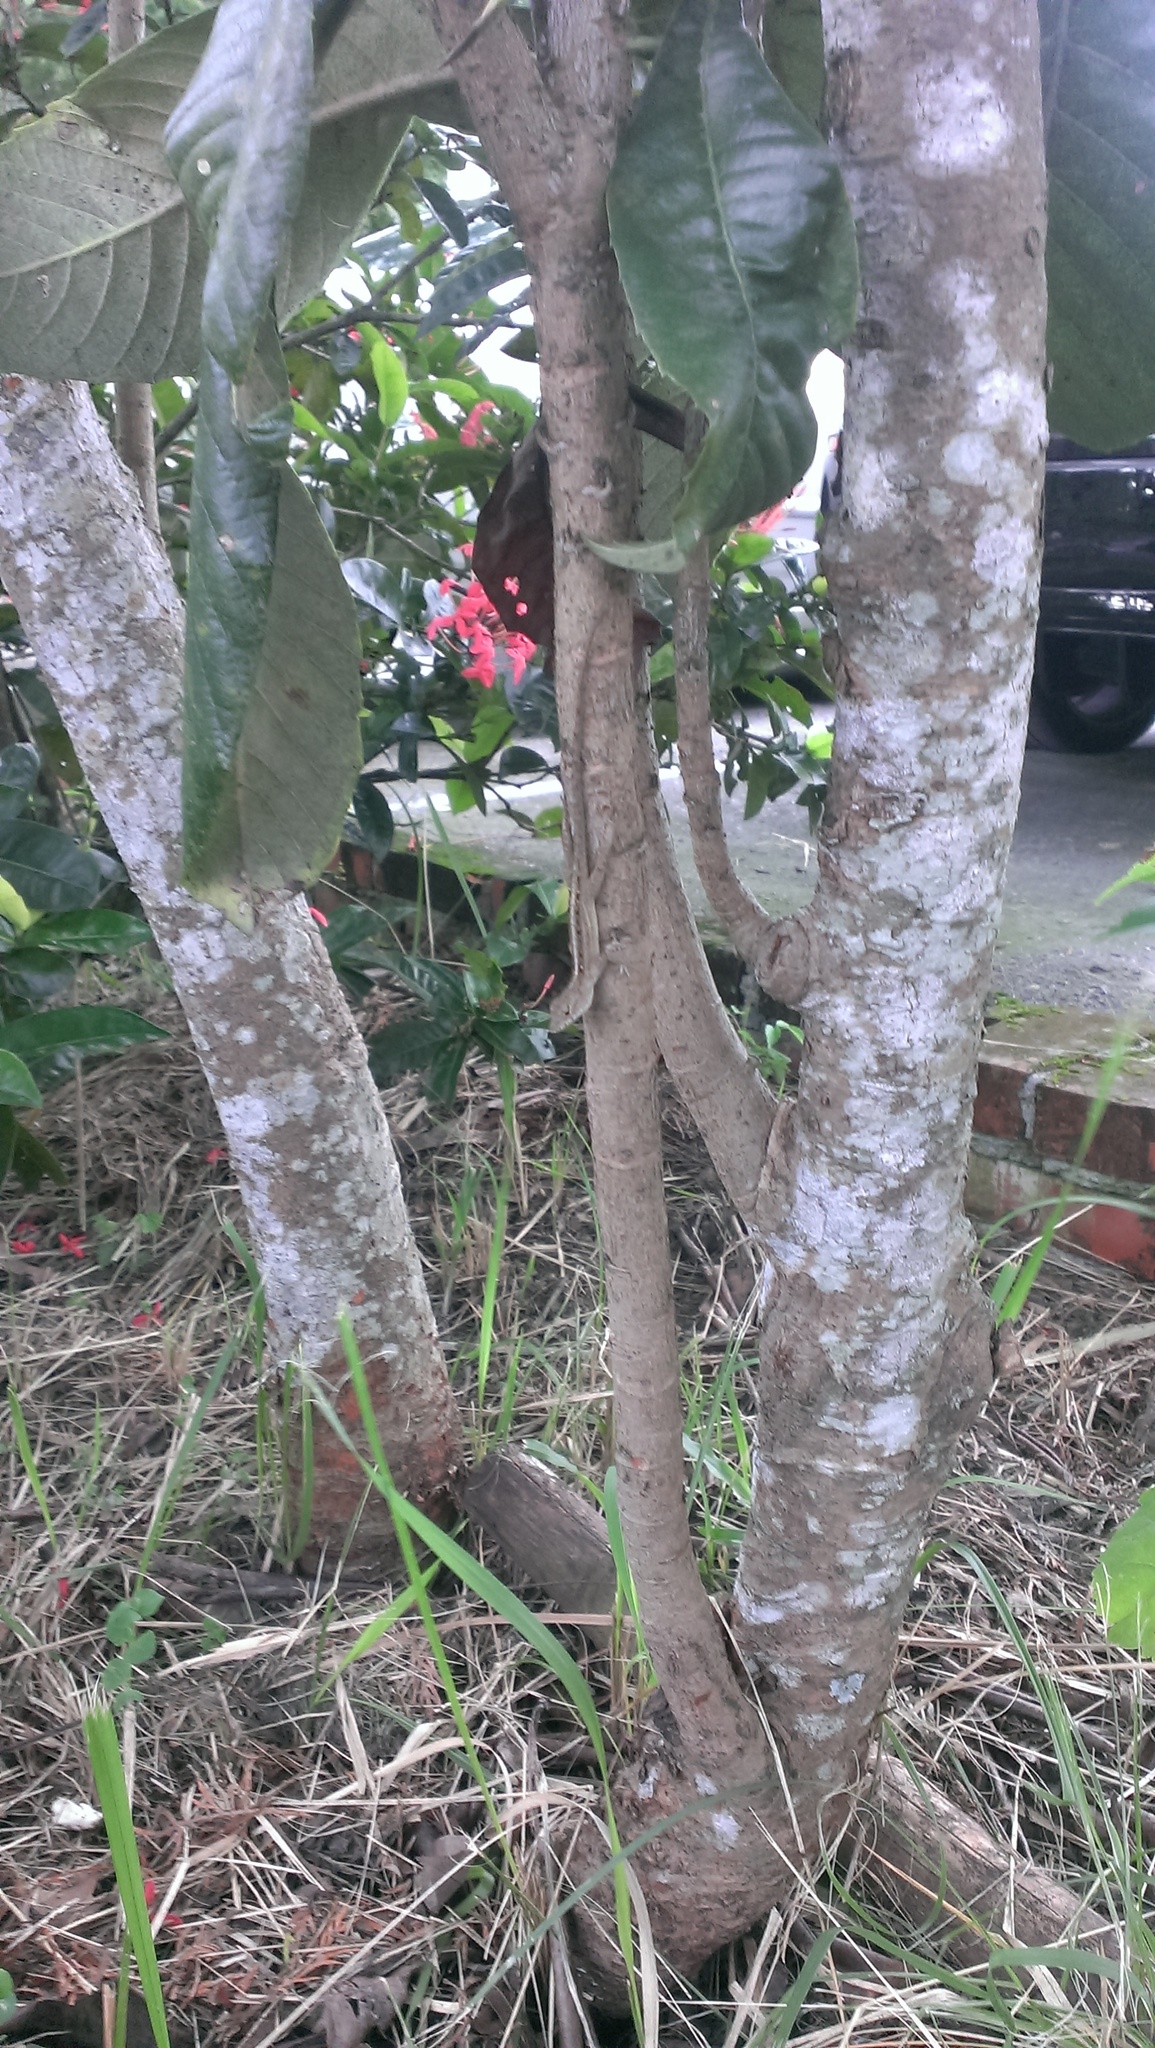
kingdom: Animalia
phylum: Chordata
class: Squamata
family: Dactyloidae
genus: Anolis
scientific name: Anolis sagrei
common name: Brown anole
